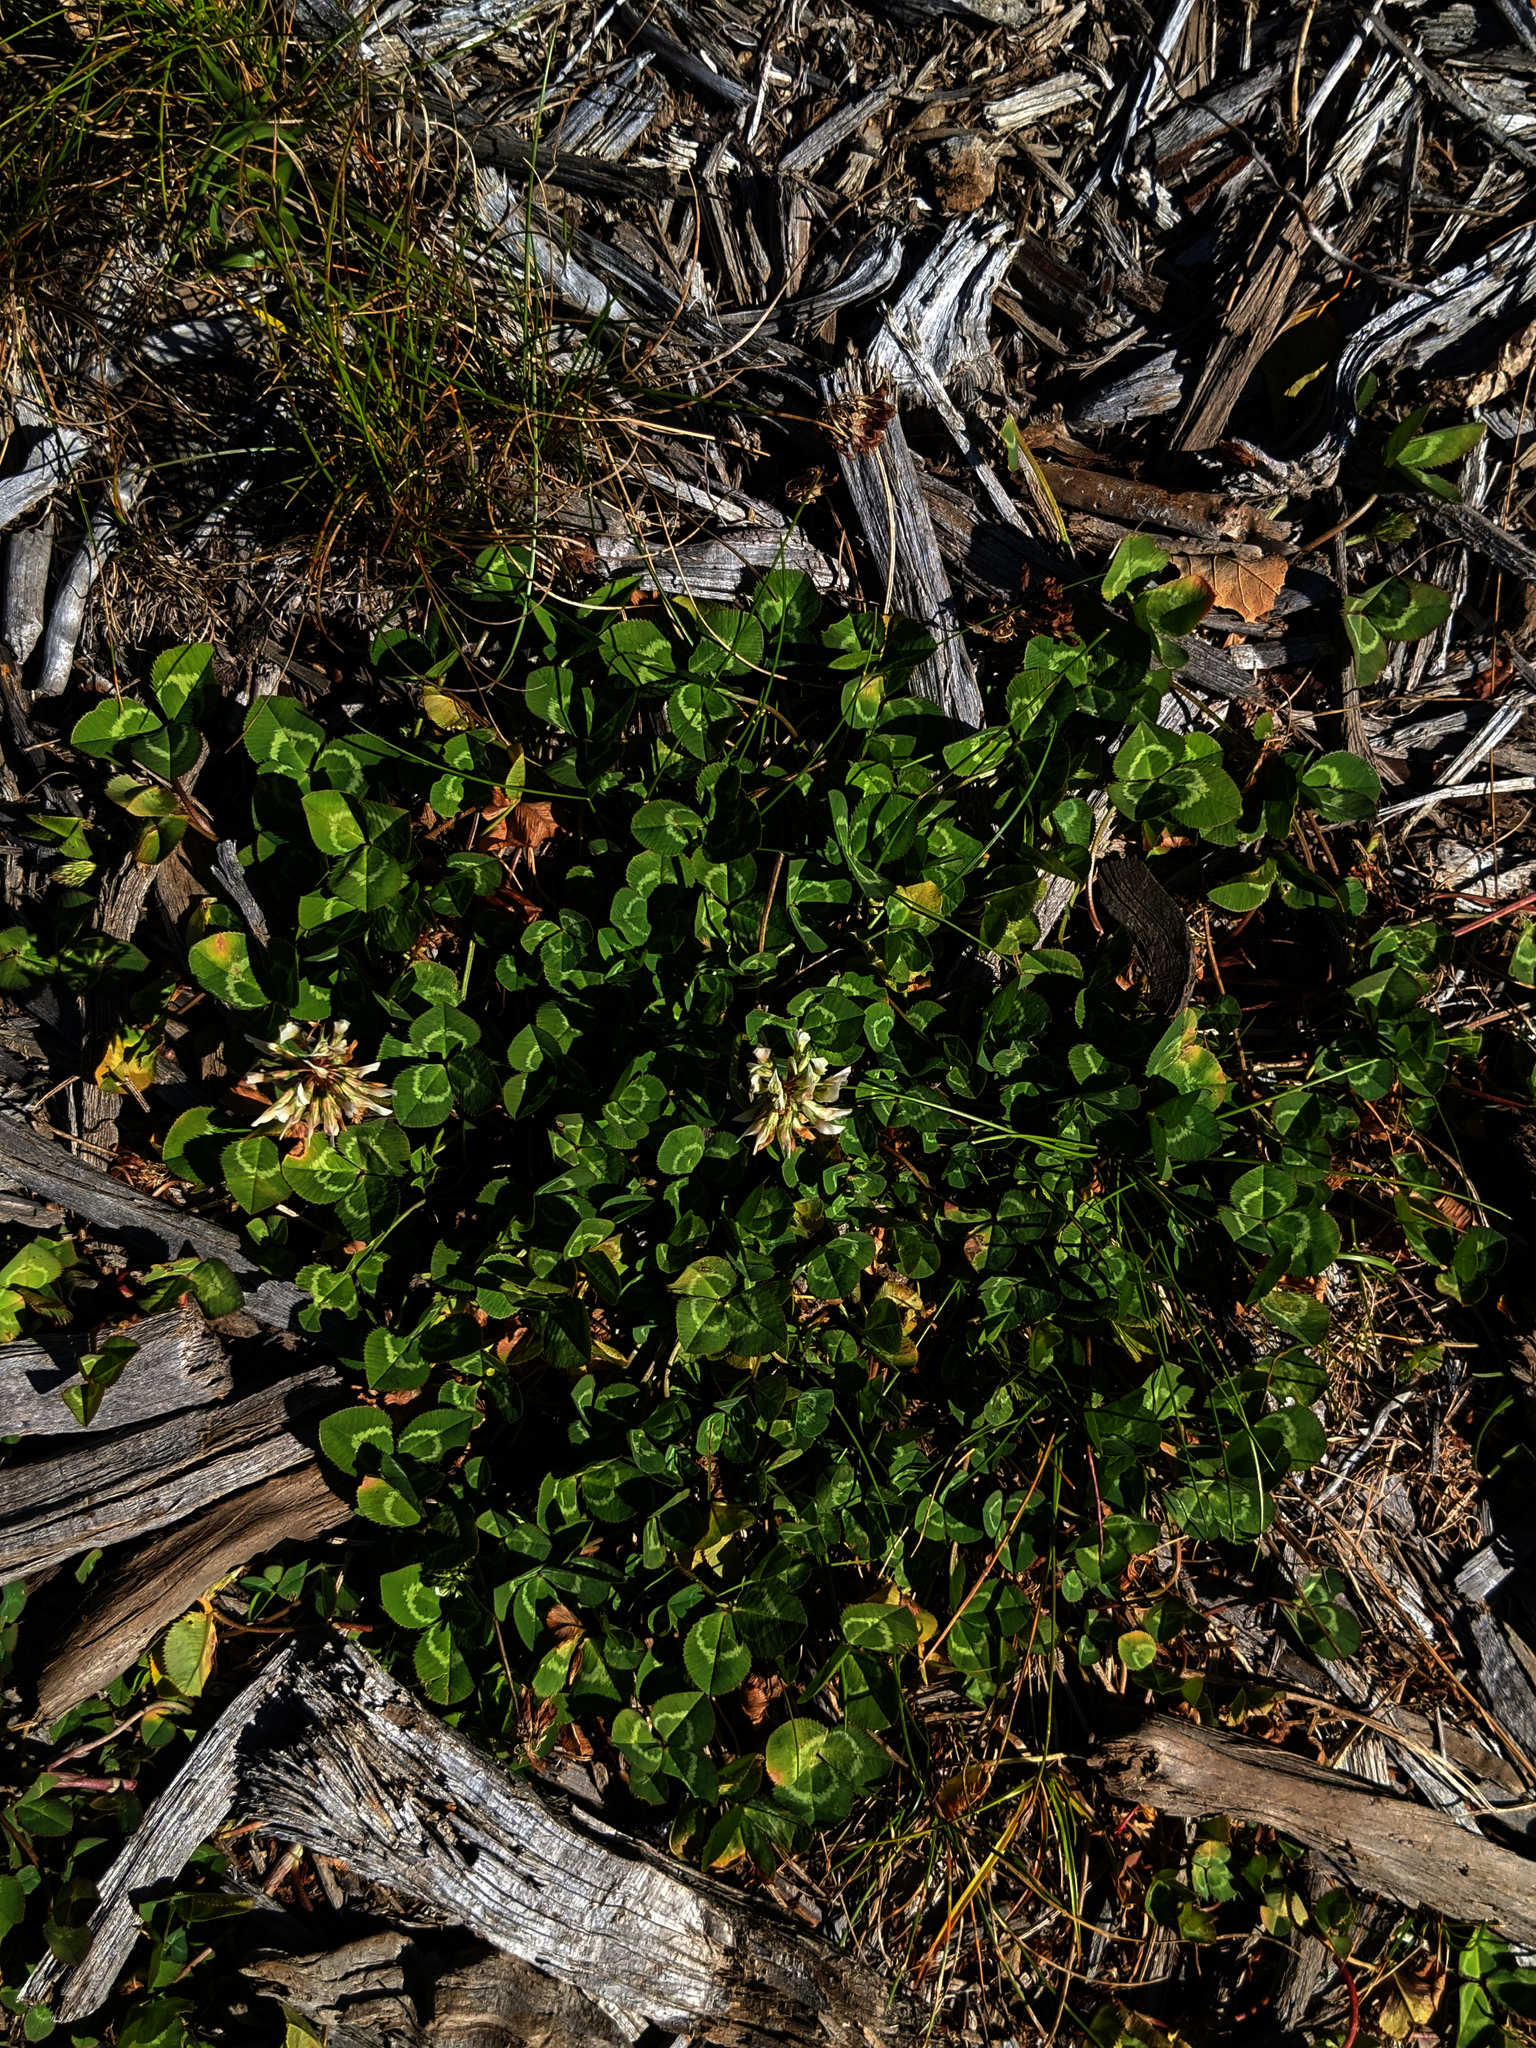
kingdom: Plantae
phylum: Tracheophyta
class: Magnoliopsida
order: Fabales
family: Fabaceae
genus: Trifolium
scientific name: Trifolium repens
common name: White clover
